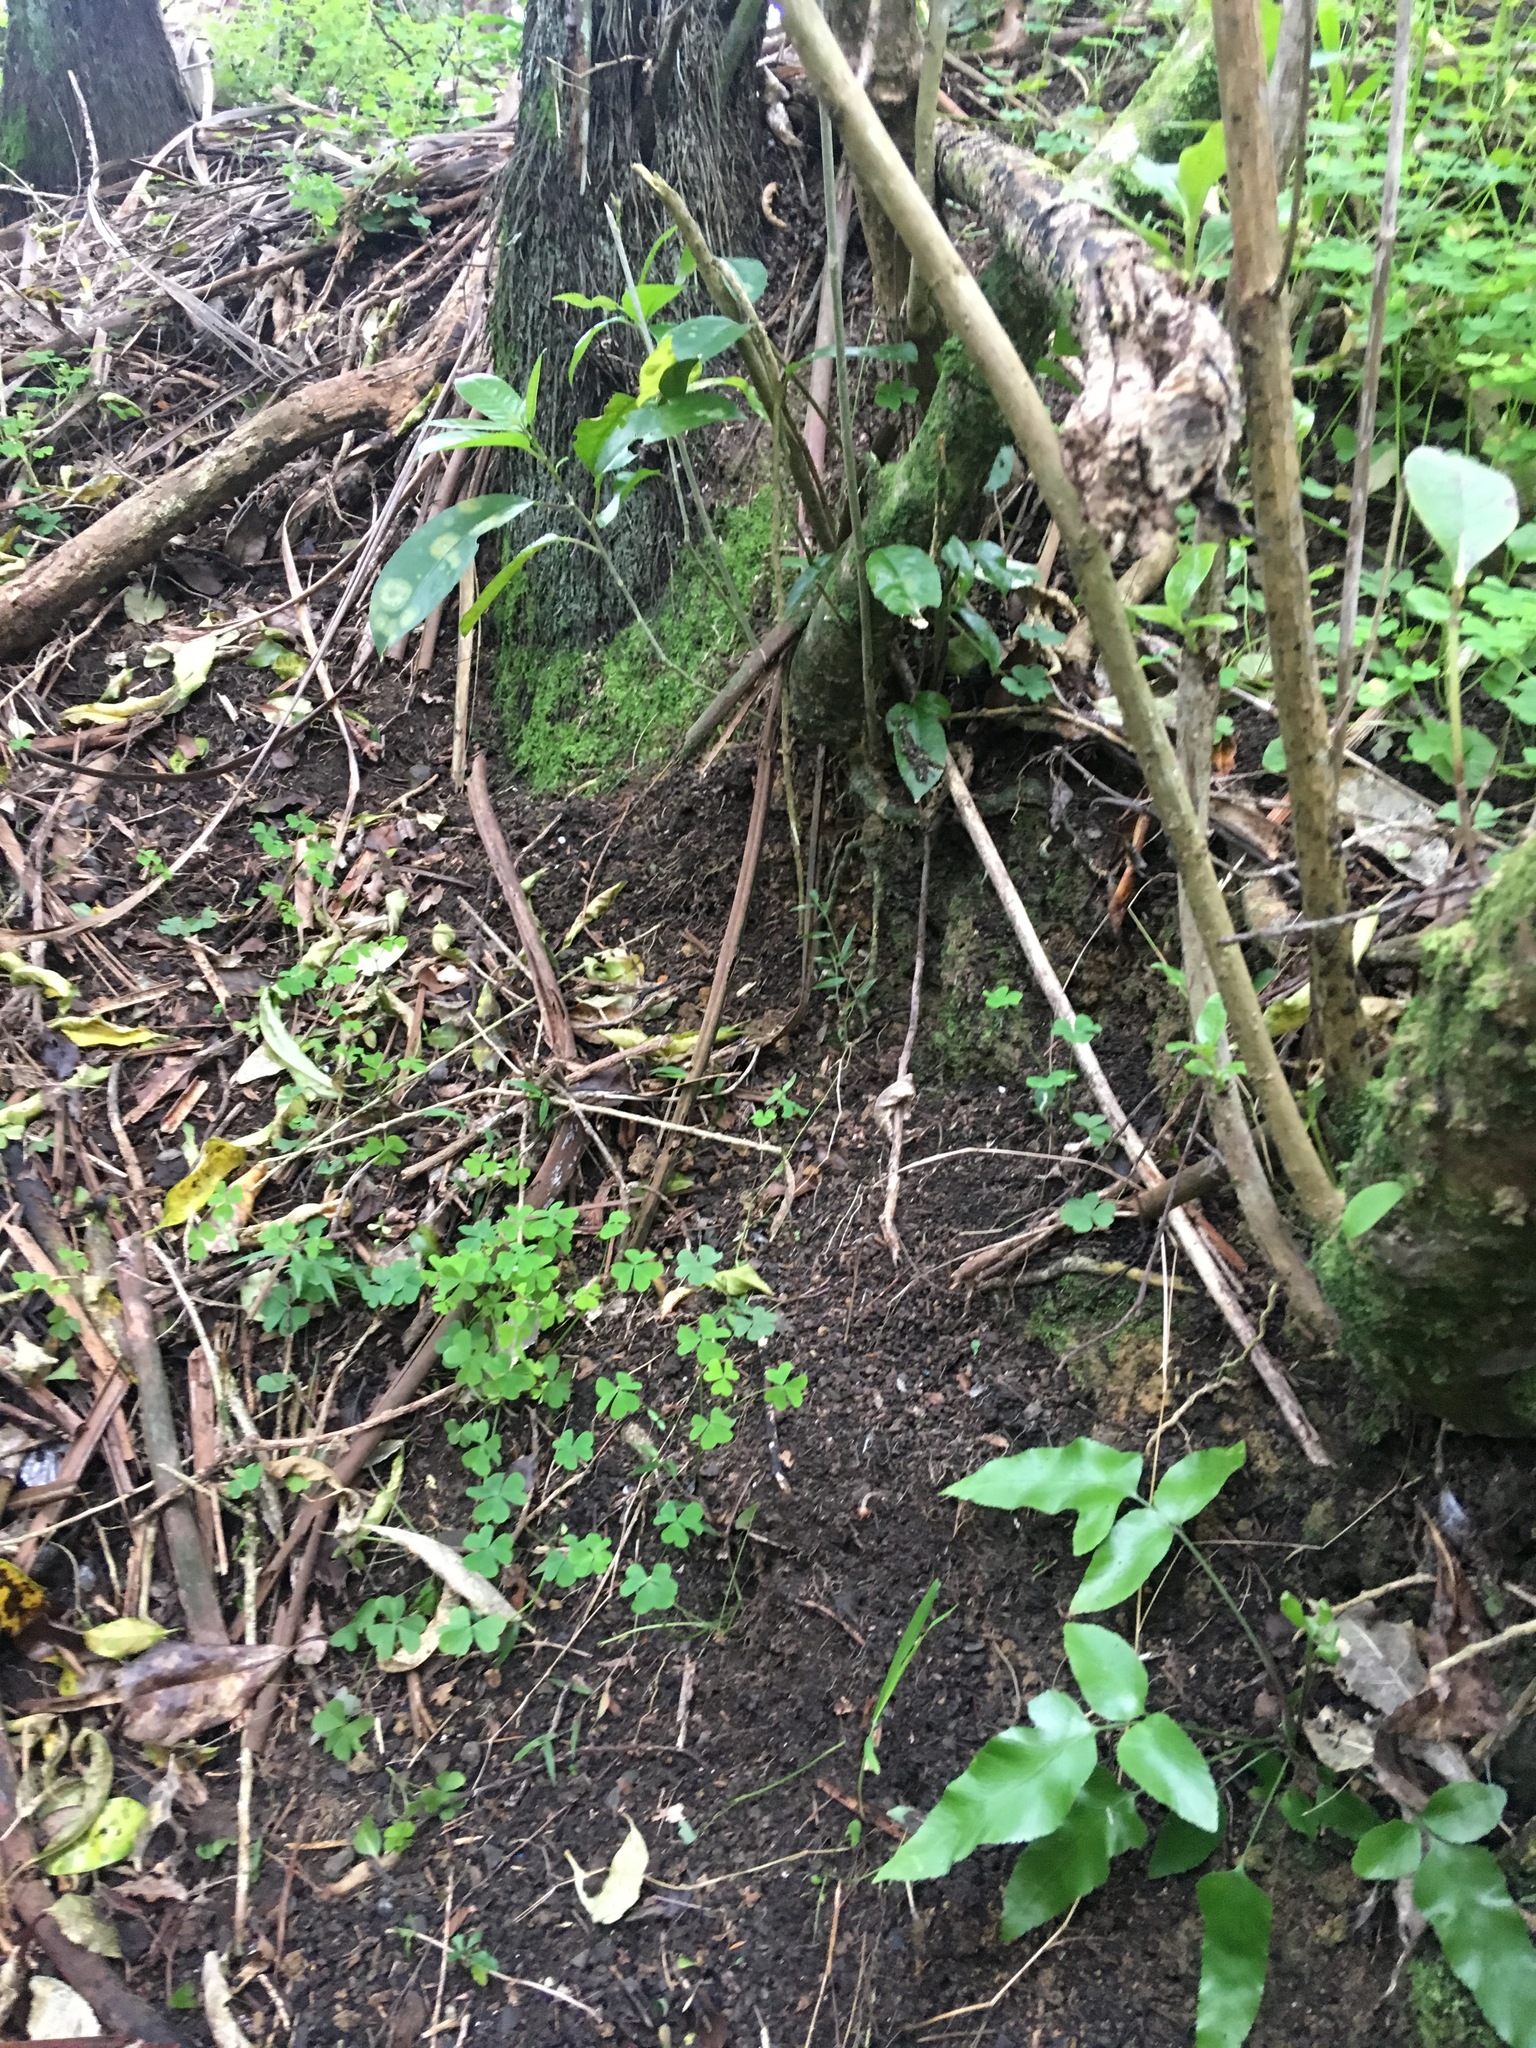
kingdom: Plantae
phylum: Tracheophyta
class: Polypodiopsida
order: Polypodiales
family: Aspleniaceae
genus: Asplenium
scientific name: Asplenium oblongifolium
